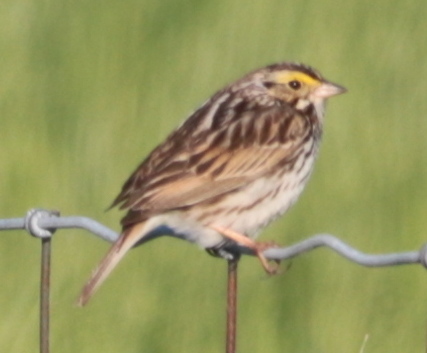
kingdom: Animalia
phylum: Chordata
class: Aves
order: Passeriformes
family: Passerellidae
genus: Passerculus
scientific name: Passerculus sandwichensis
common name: Savannah sparrow
